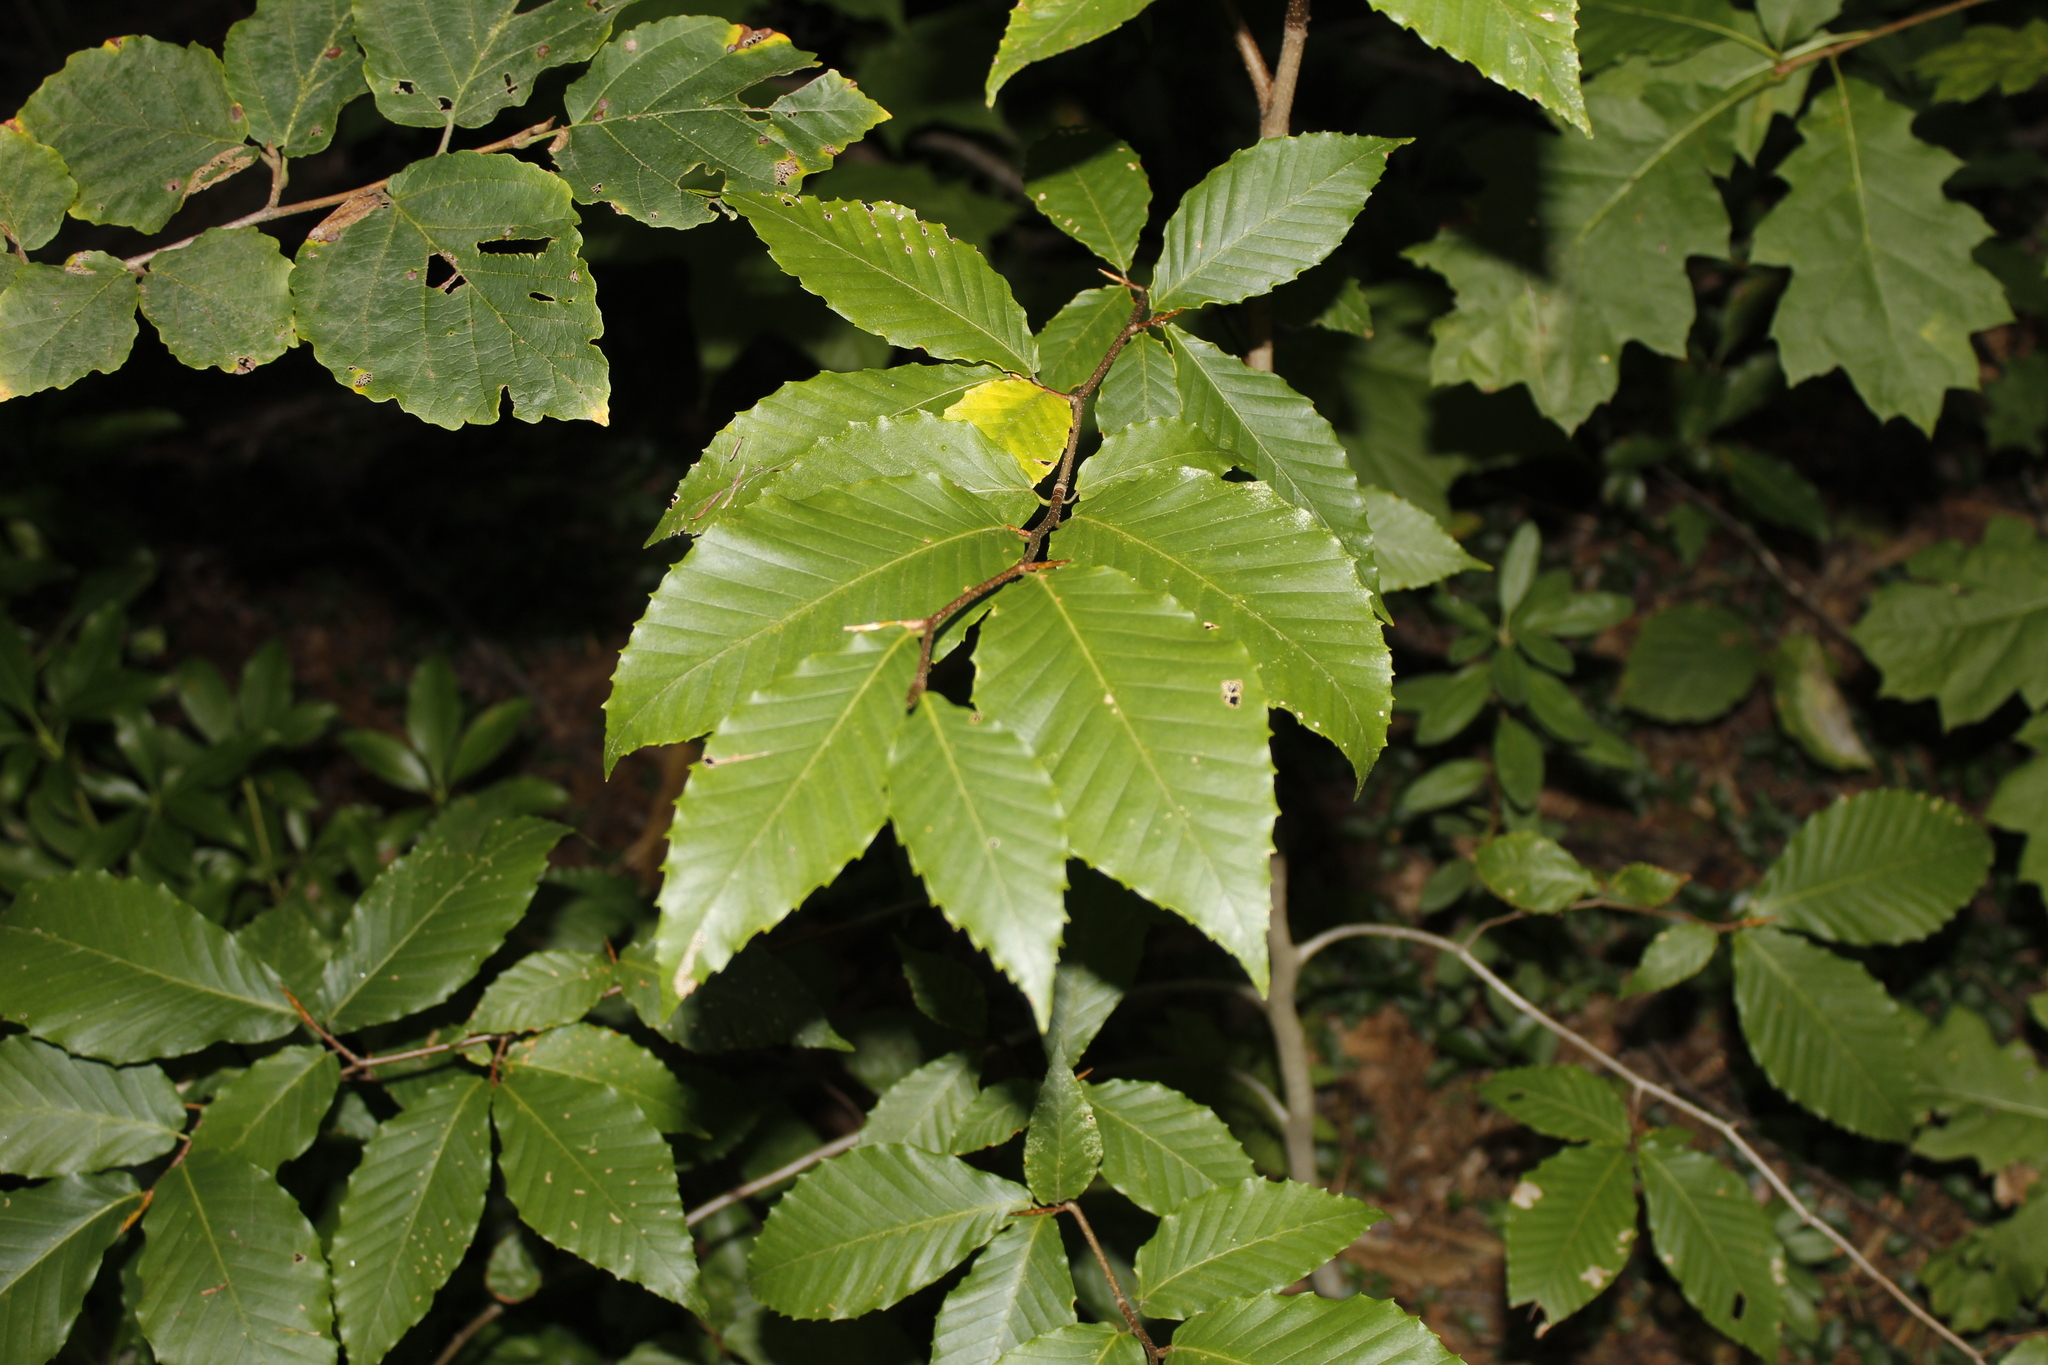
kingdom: Plantae
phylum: Tracheophyta
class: Magnoliopsida
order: Fagales
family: Fagaceae
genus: Fagus
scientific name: Fagus grandifolia
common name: American beech
